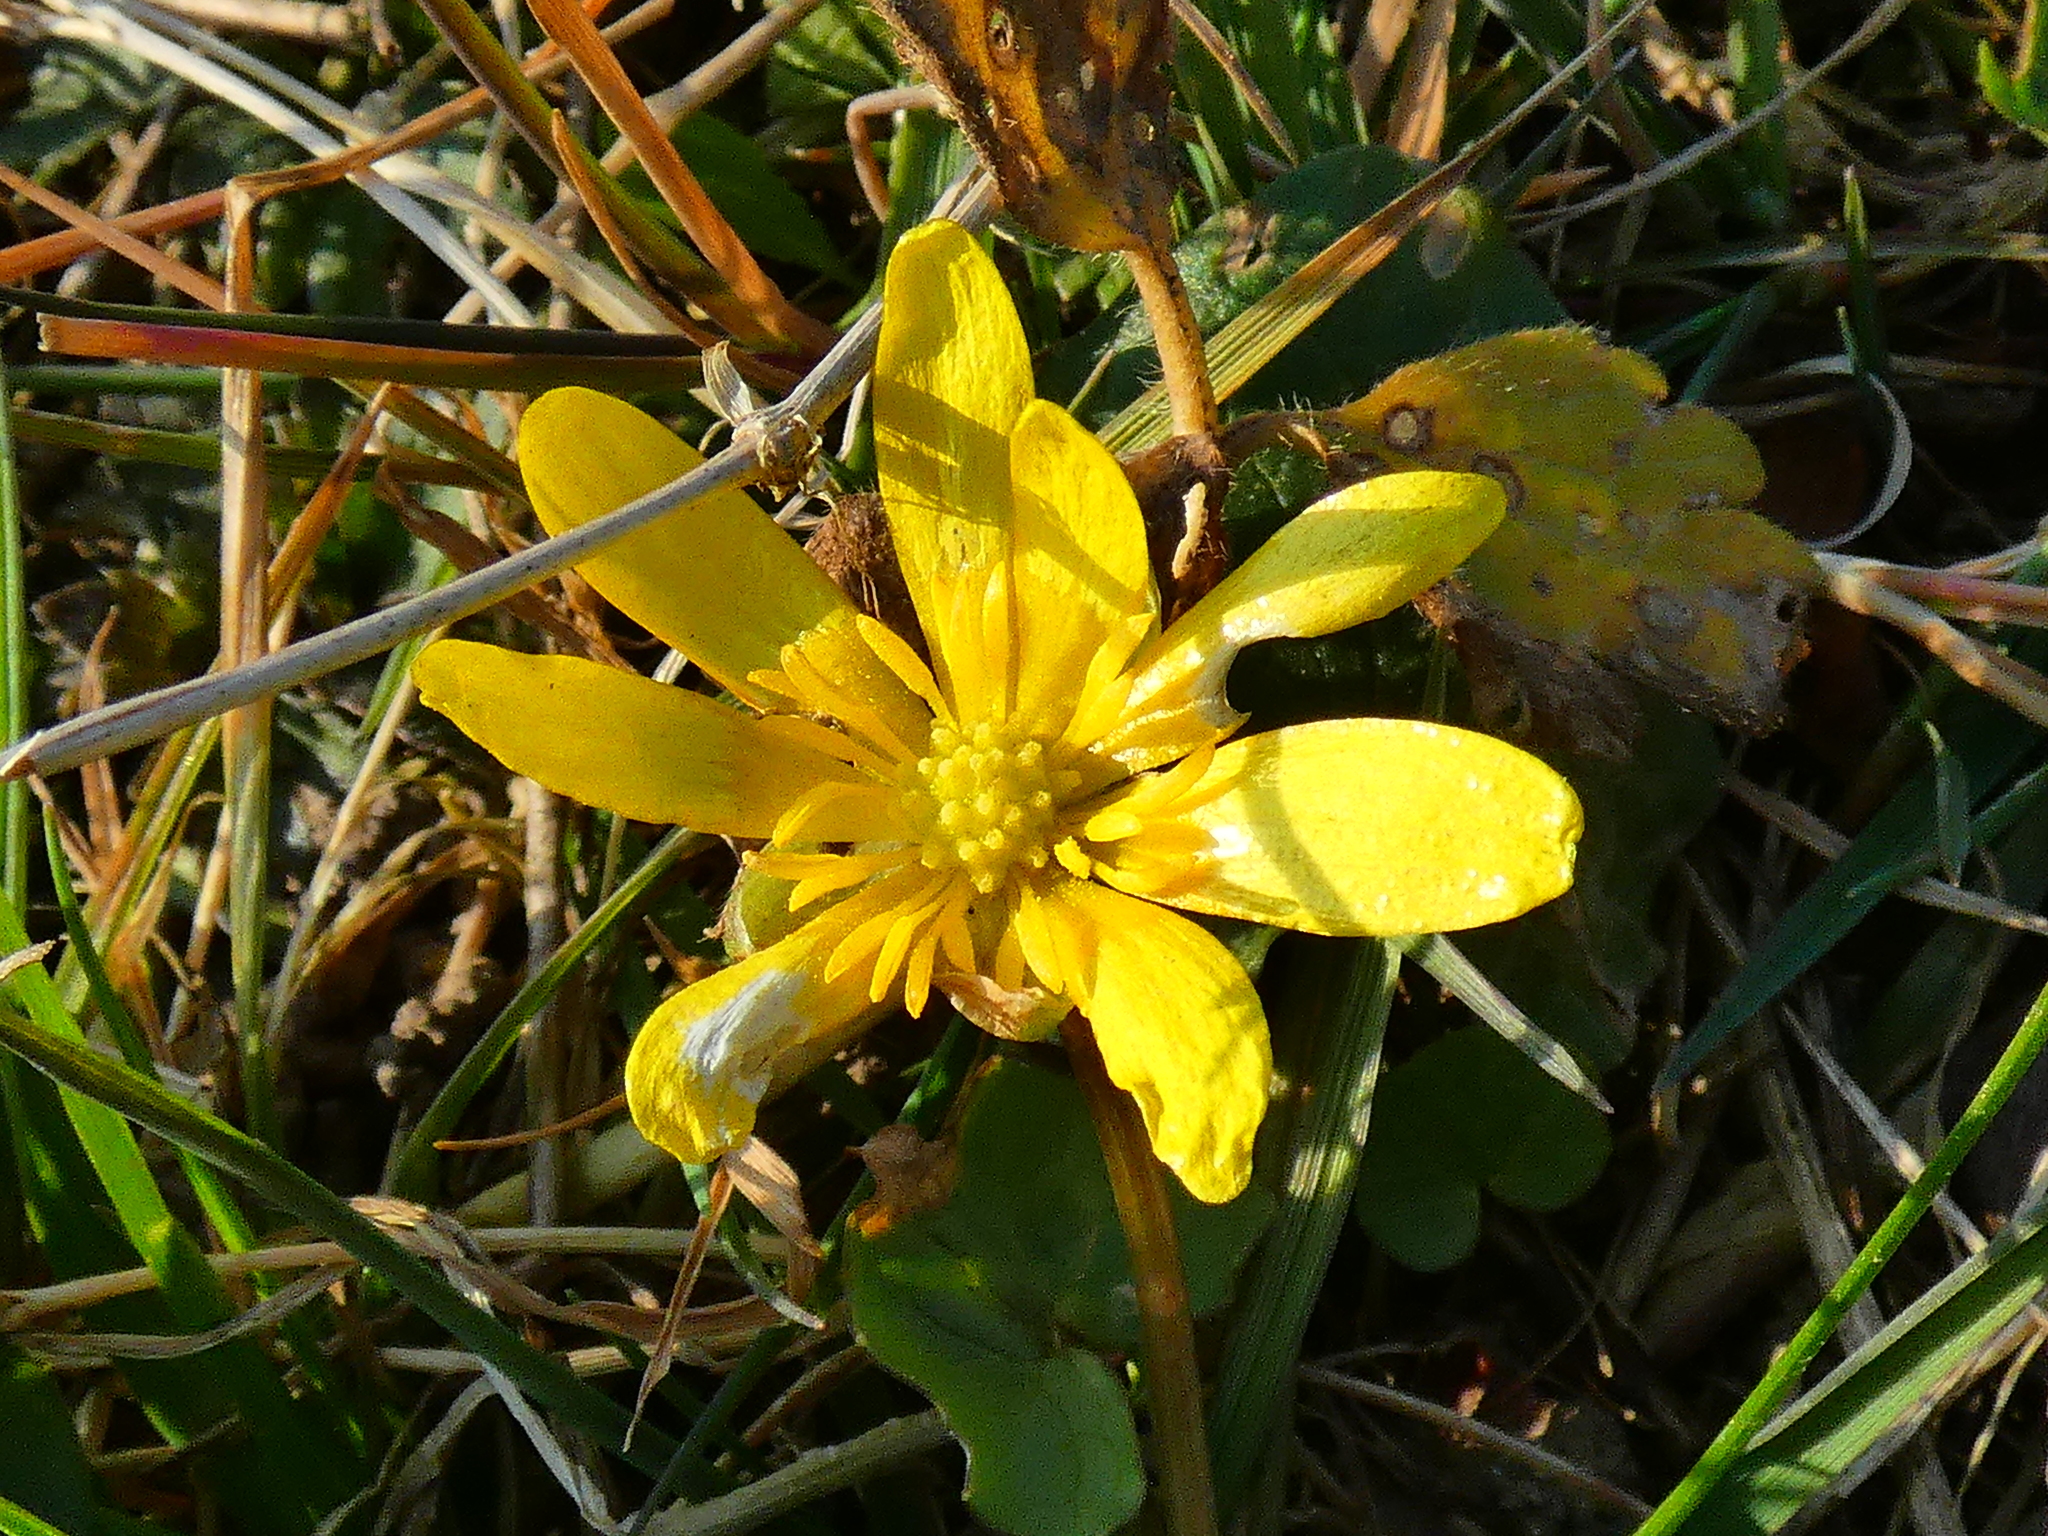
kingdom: Plantae
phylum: Tracheophyta
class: Magnoliopsida
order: Ranunculales
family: Ranunculaceae
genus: Ficaria
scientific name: Ficaria verna
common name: Lesser celandine
